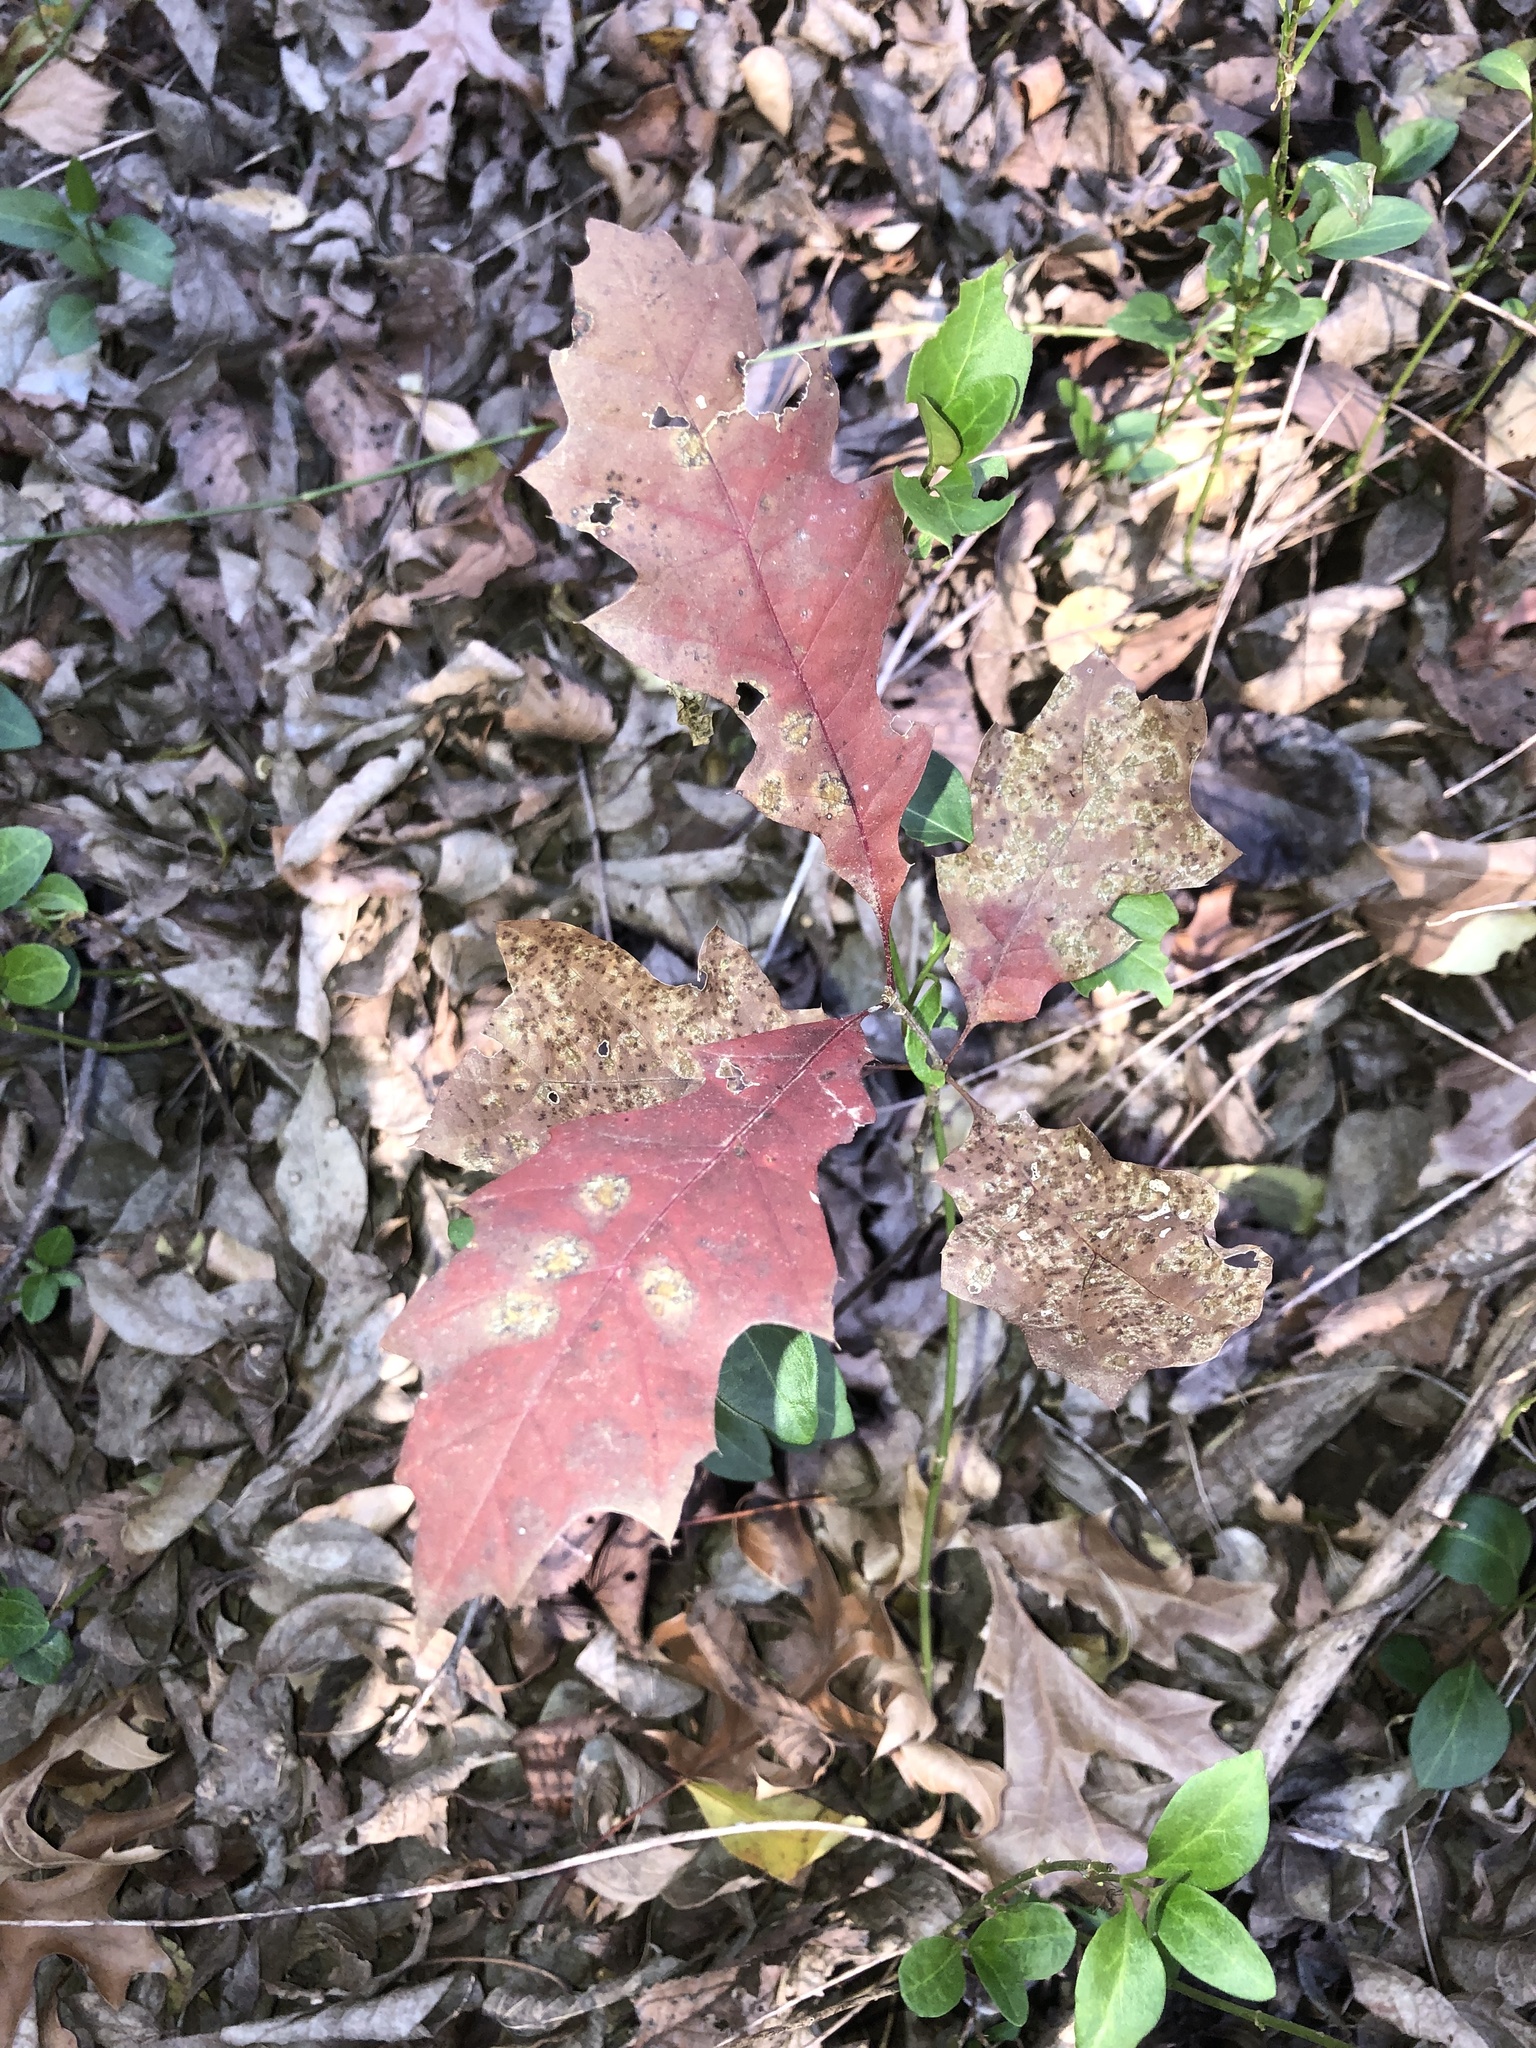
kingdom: Plantae
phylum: Tracheophyta
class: Magnoliopsida
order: Fagales
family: Fagaceae
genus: Quercus
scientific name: Quercus muehlenbergii
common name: Chinkapin oak
